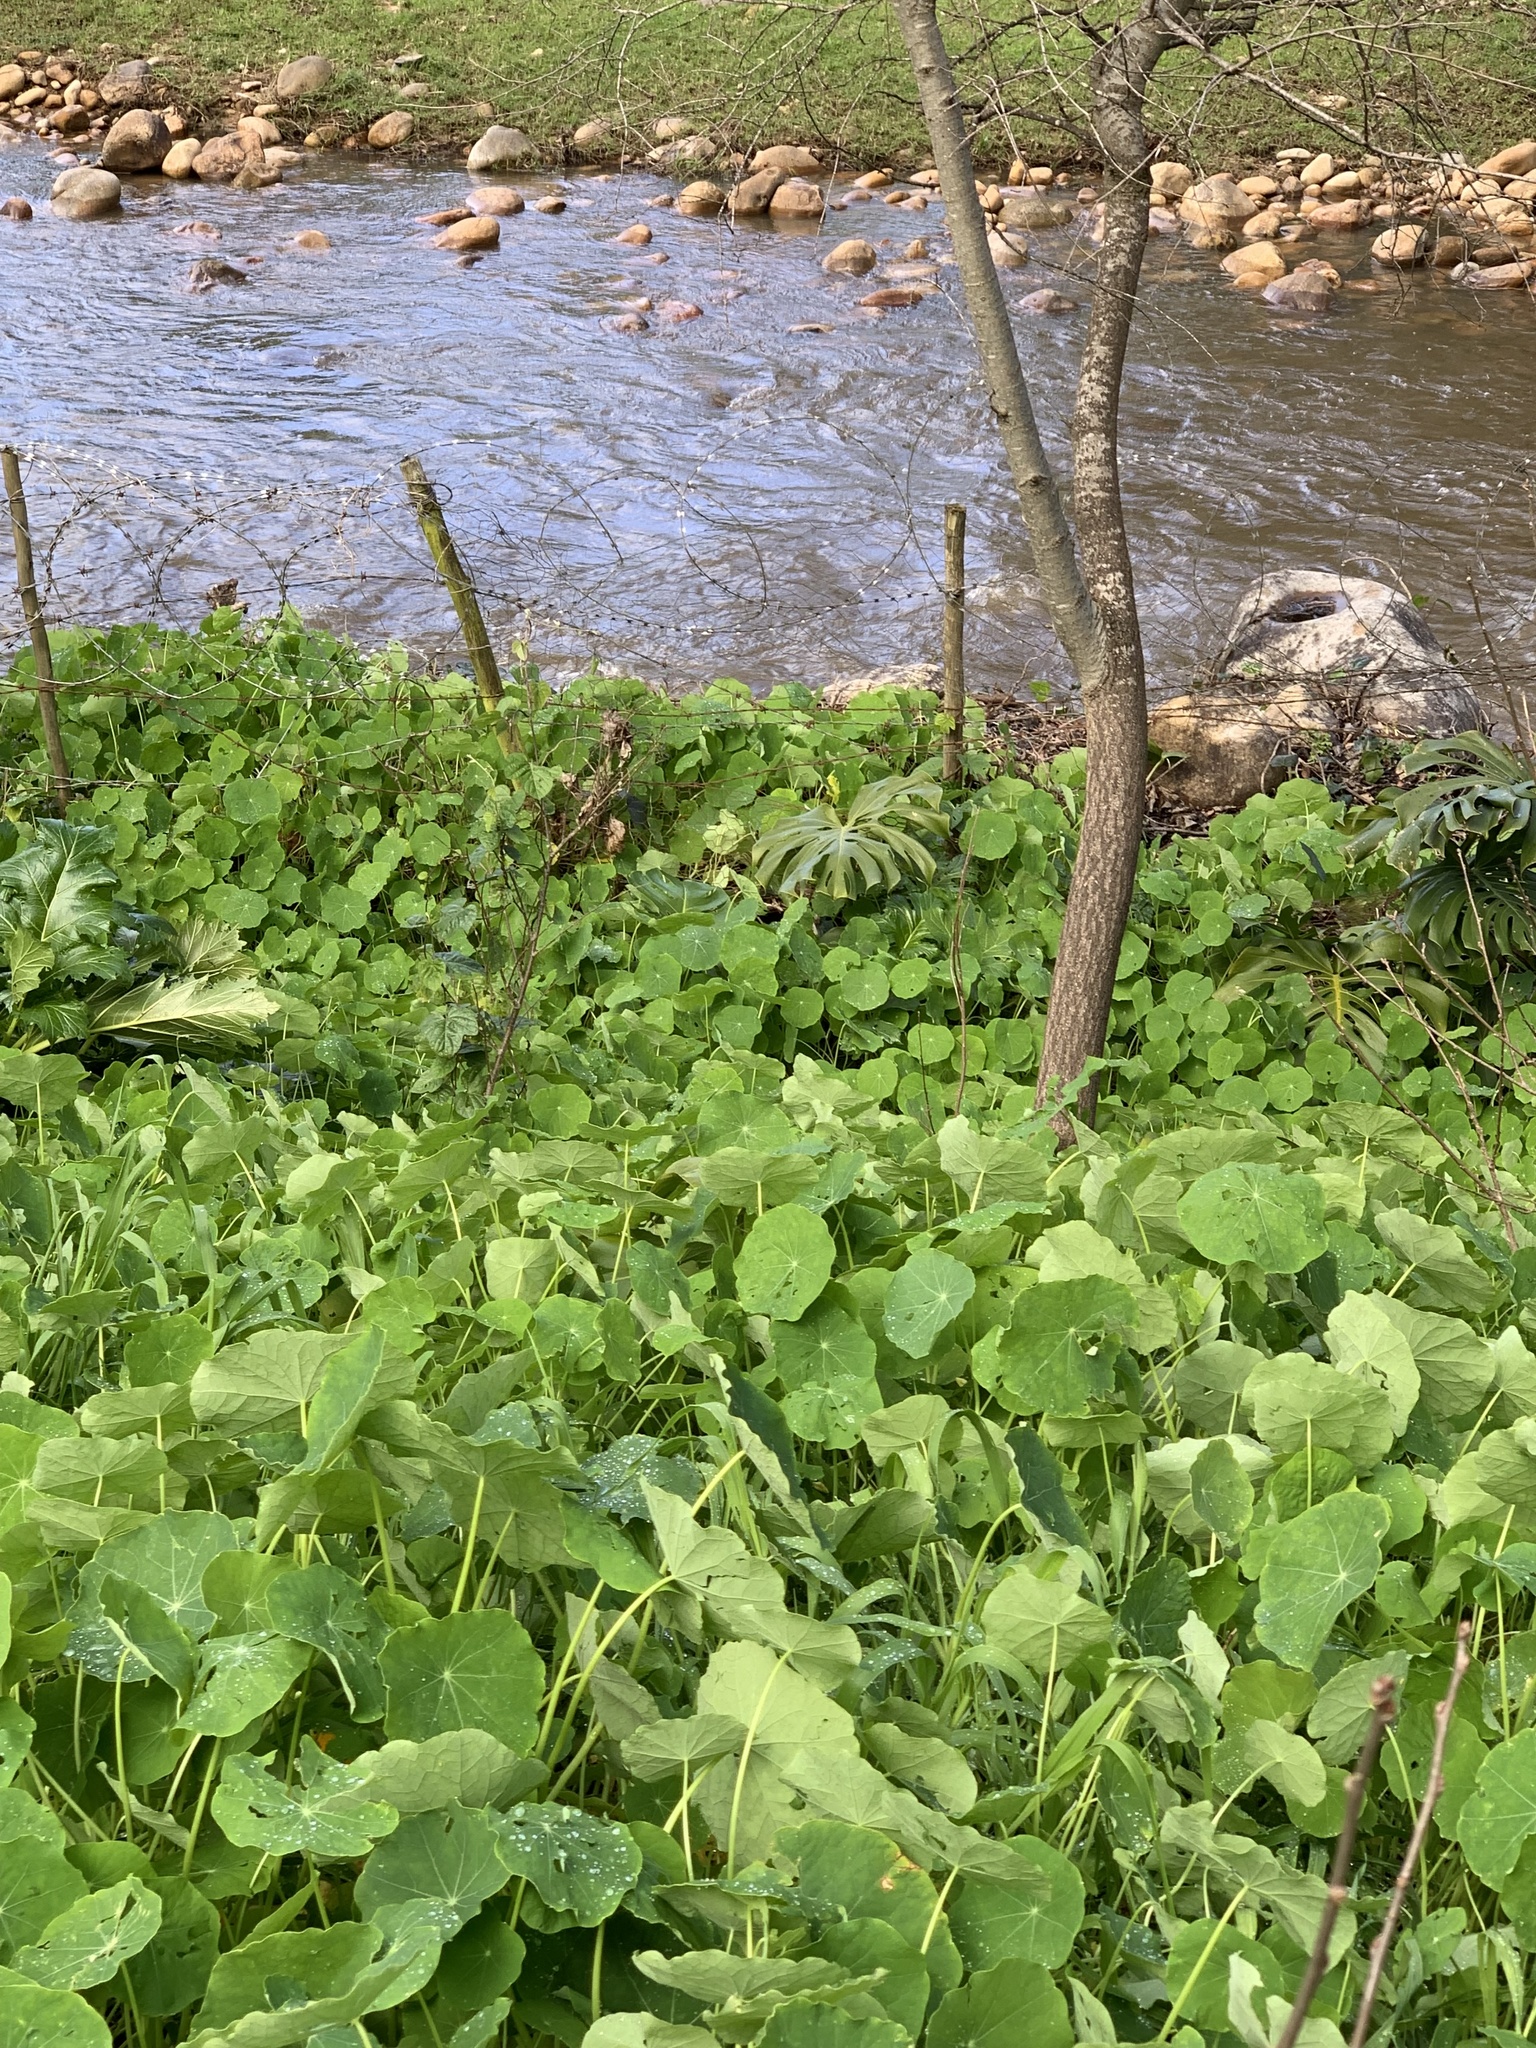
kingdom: Plantae
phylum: Tracheophyta
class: Magnoliopsida
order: Brassicales
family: Tropaeolaceae
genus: Tropaeolum
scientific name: Tropaeolum majus
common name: Nasturtium
